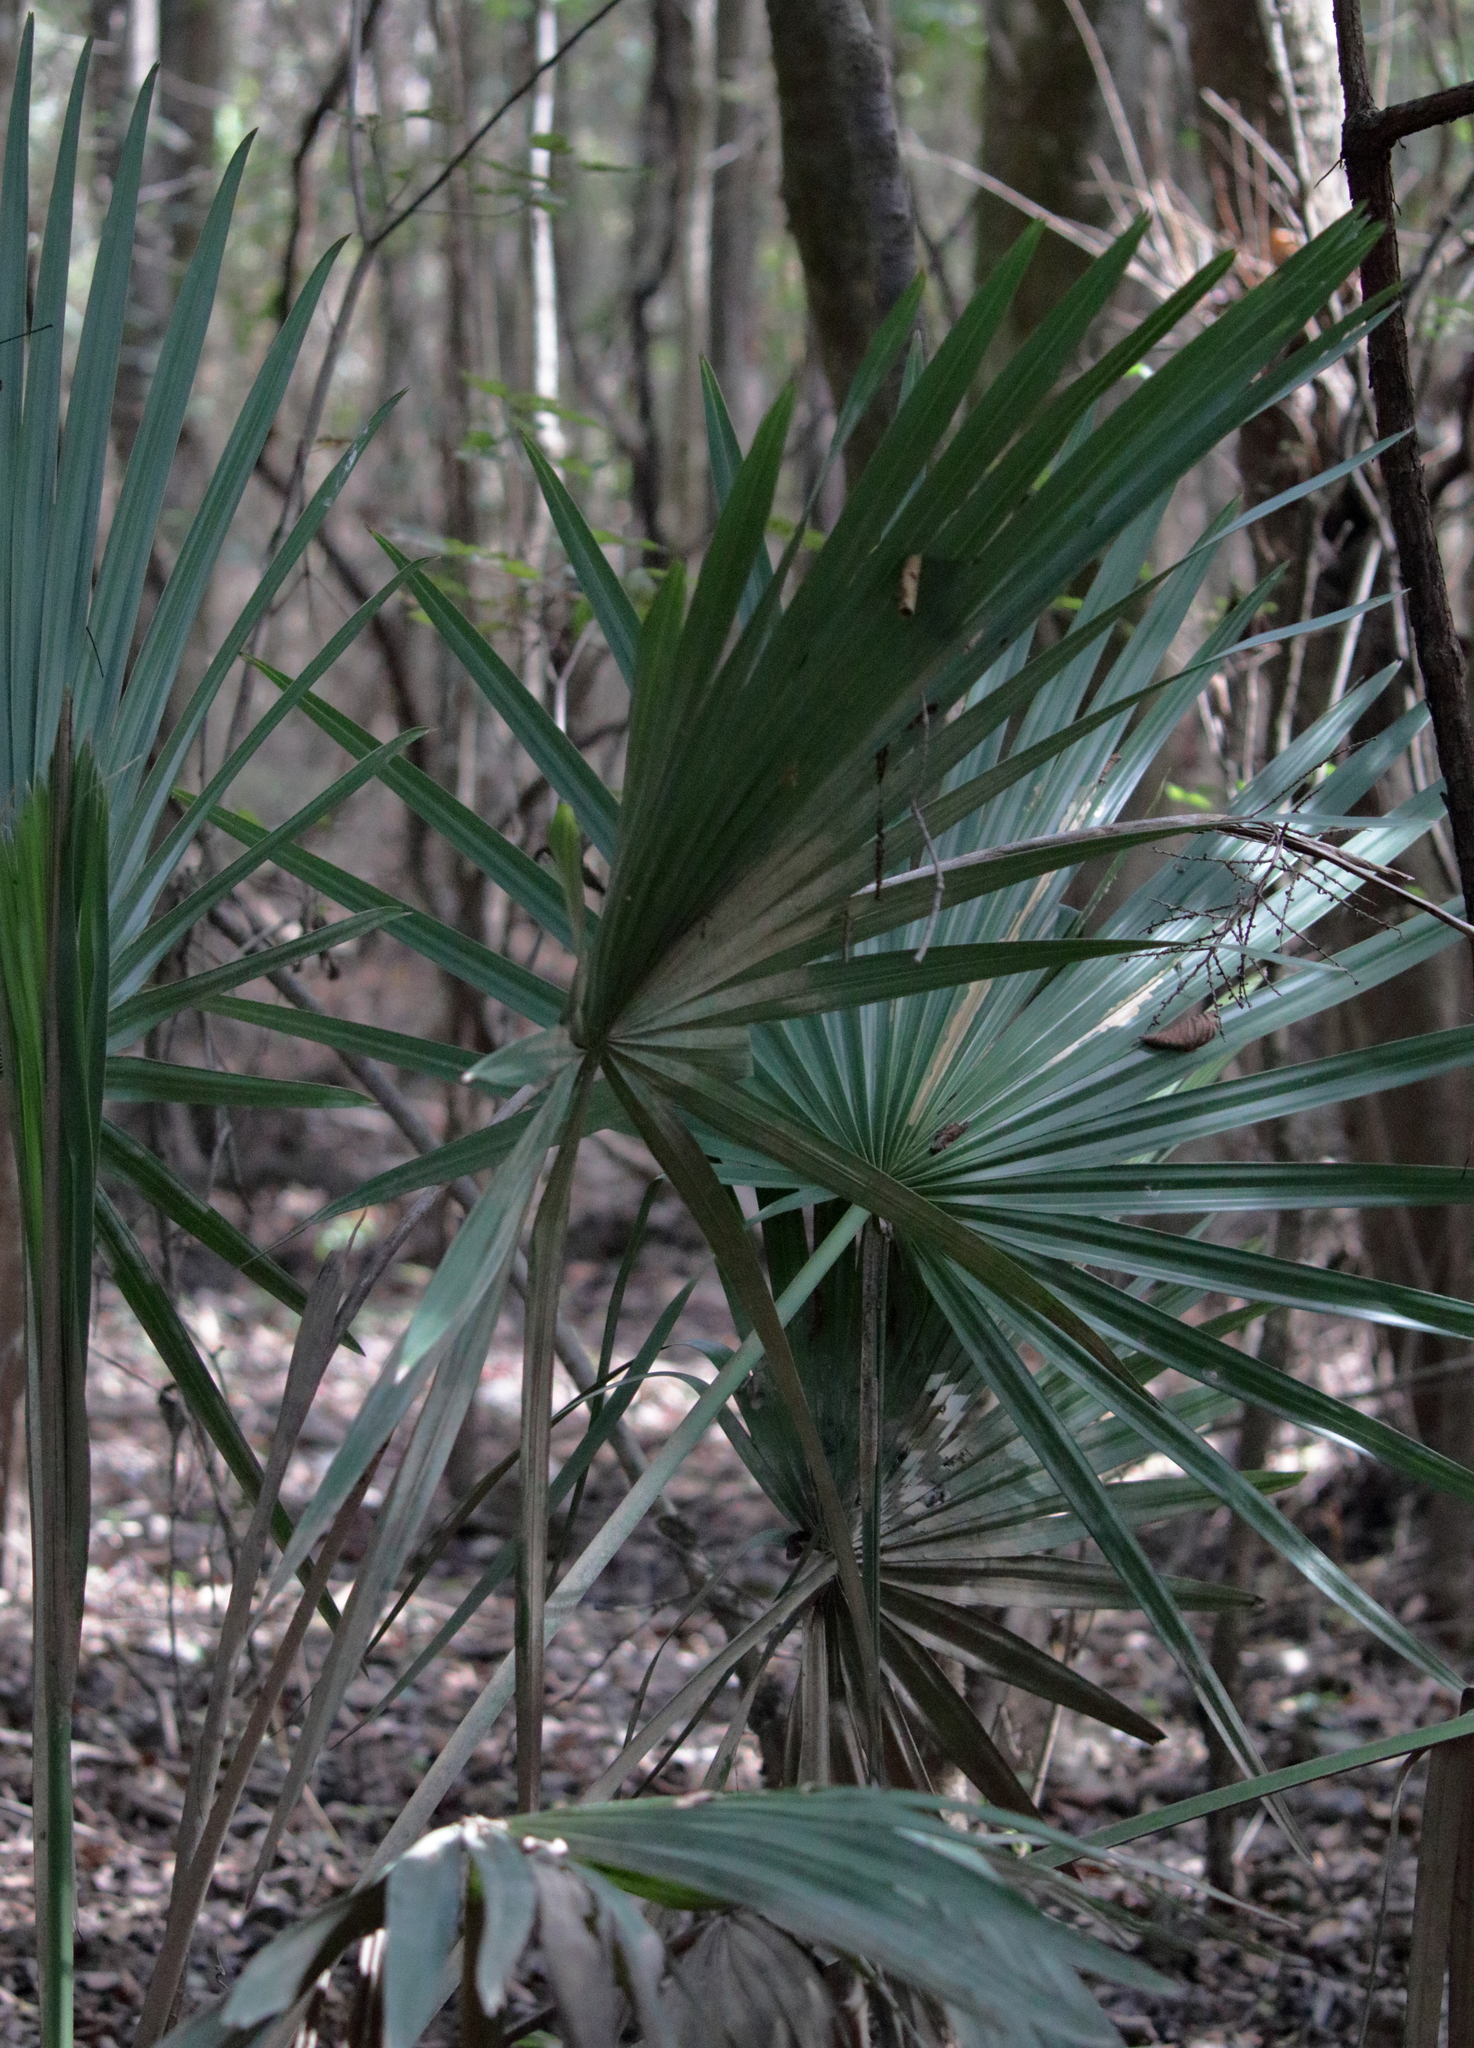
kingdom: Plantae
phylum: Tracheophyta
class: Liliopsida
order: Arecales
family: Arecaceae
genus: Sabal
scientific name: Sabal minor
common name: Dwarf palmetto
